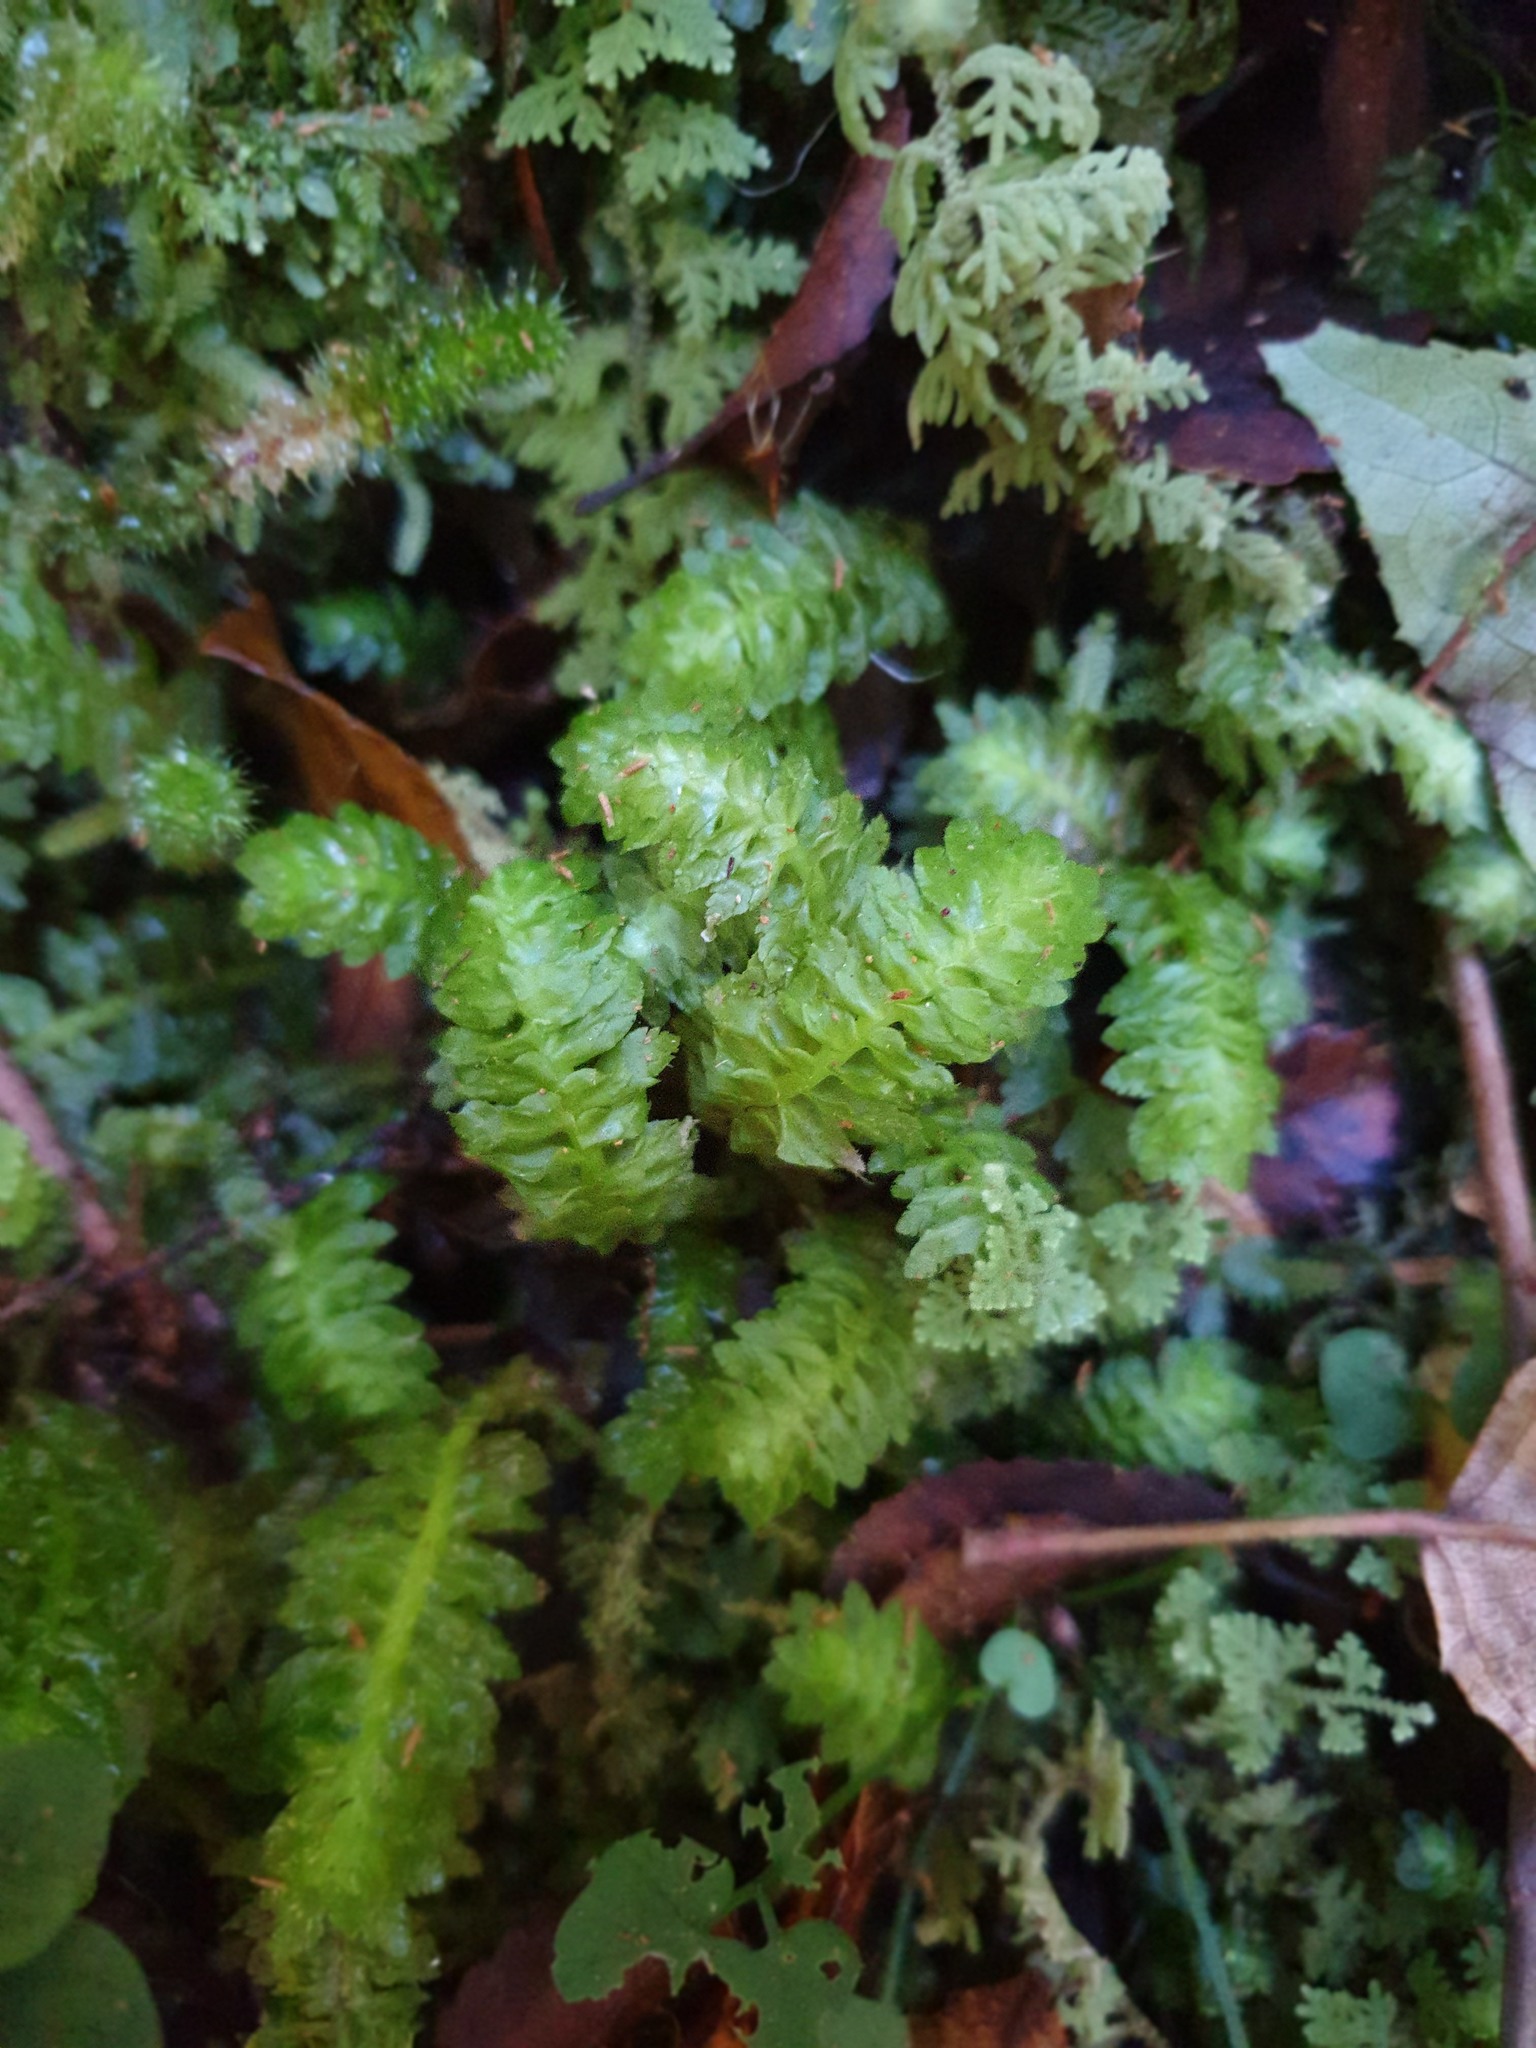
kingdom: Plantae
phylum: Marchantiophyta
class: Jungermanniopsida
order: Jungermanniales
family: Schistochilaceae
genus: Schistochila
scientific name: Schistochila
